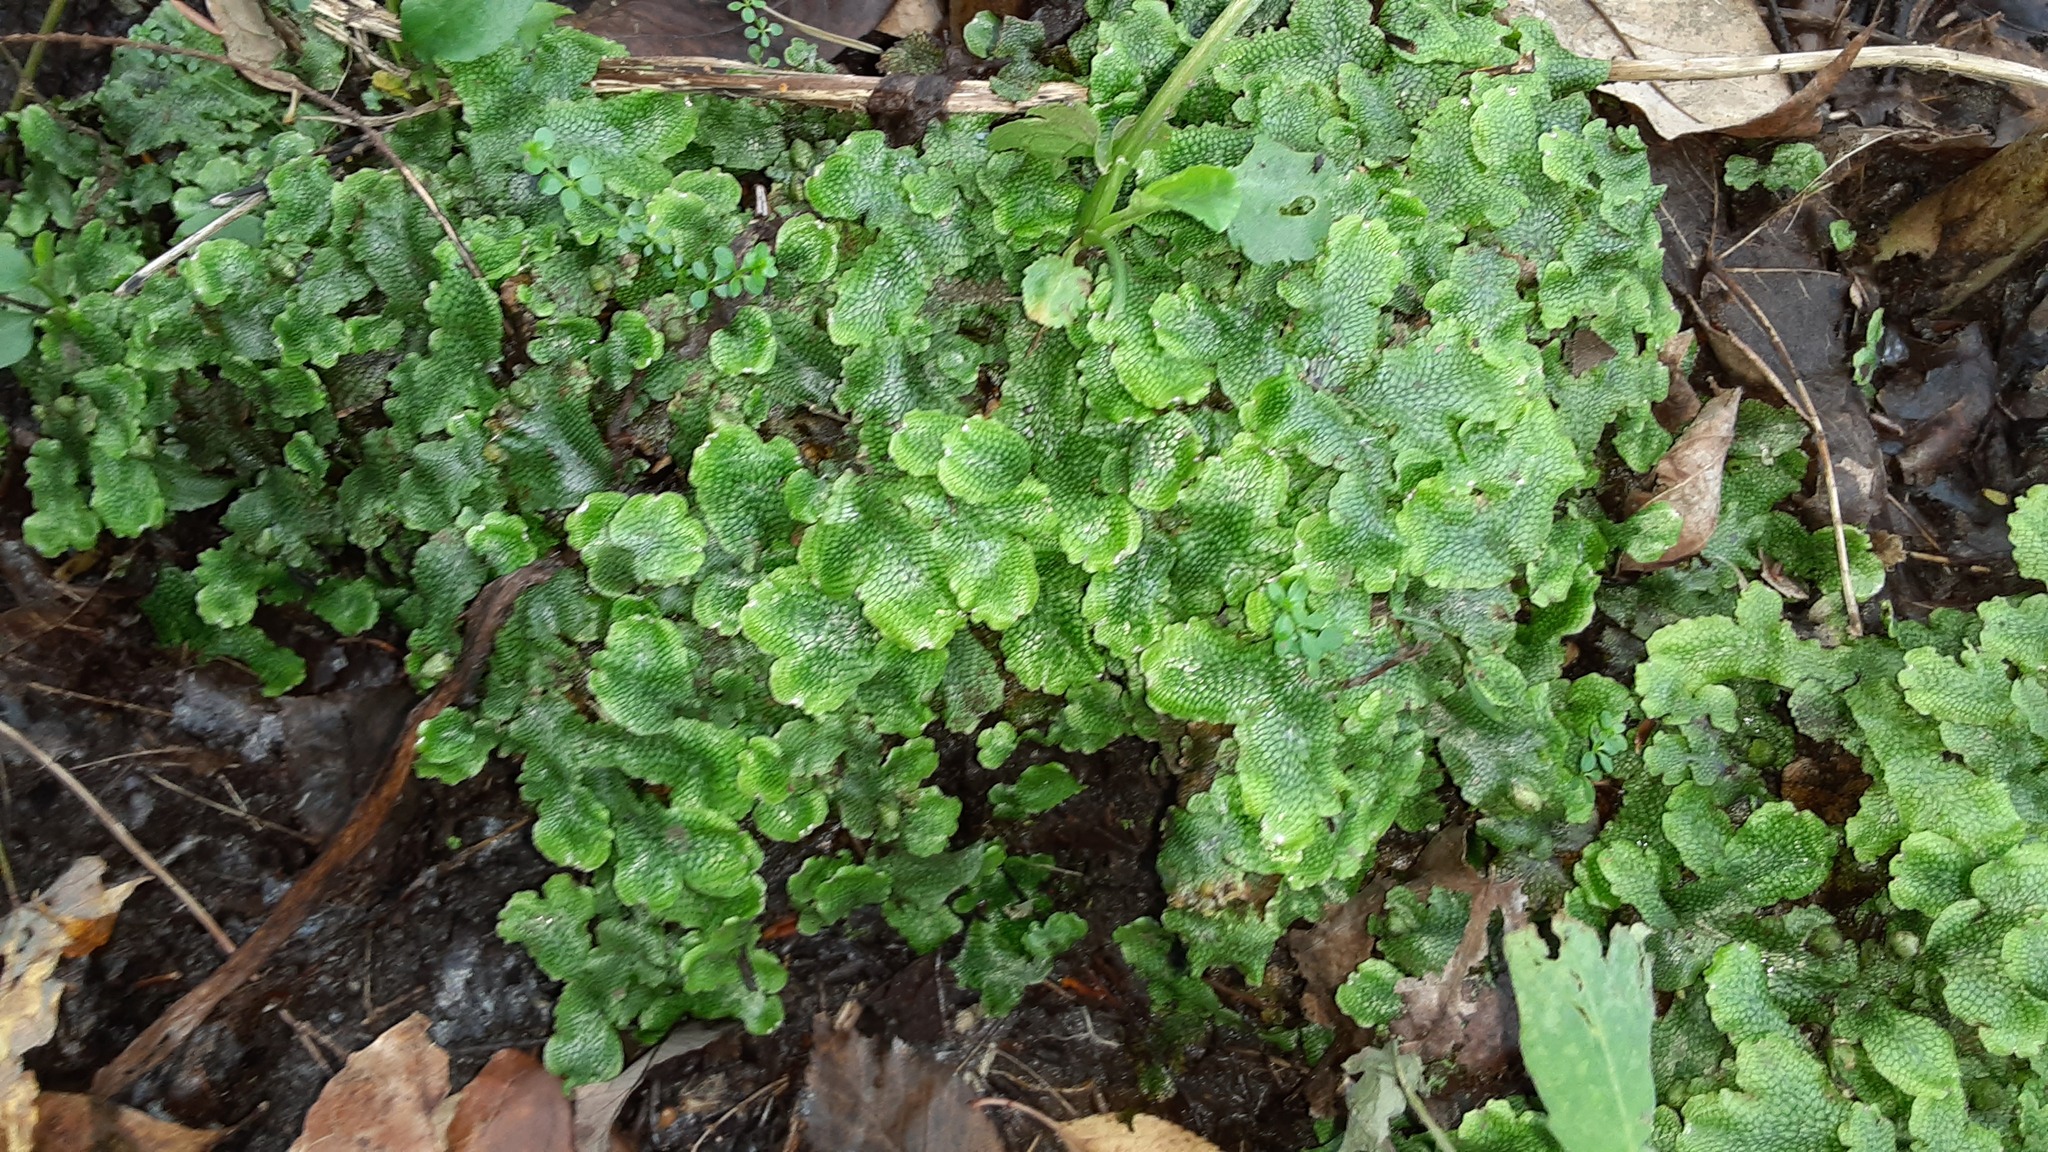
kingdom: Plantae
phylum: Marchantiophyta
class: Marchantiopsida
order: Marchantiales
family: Conocephalaceae
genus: Conocephalum
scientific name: Conocephalum salebrosum
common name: Cat-tongue liverwort
